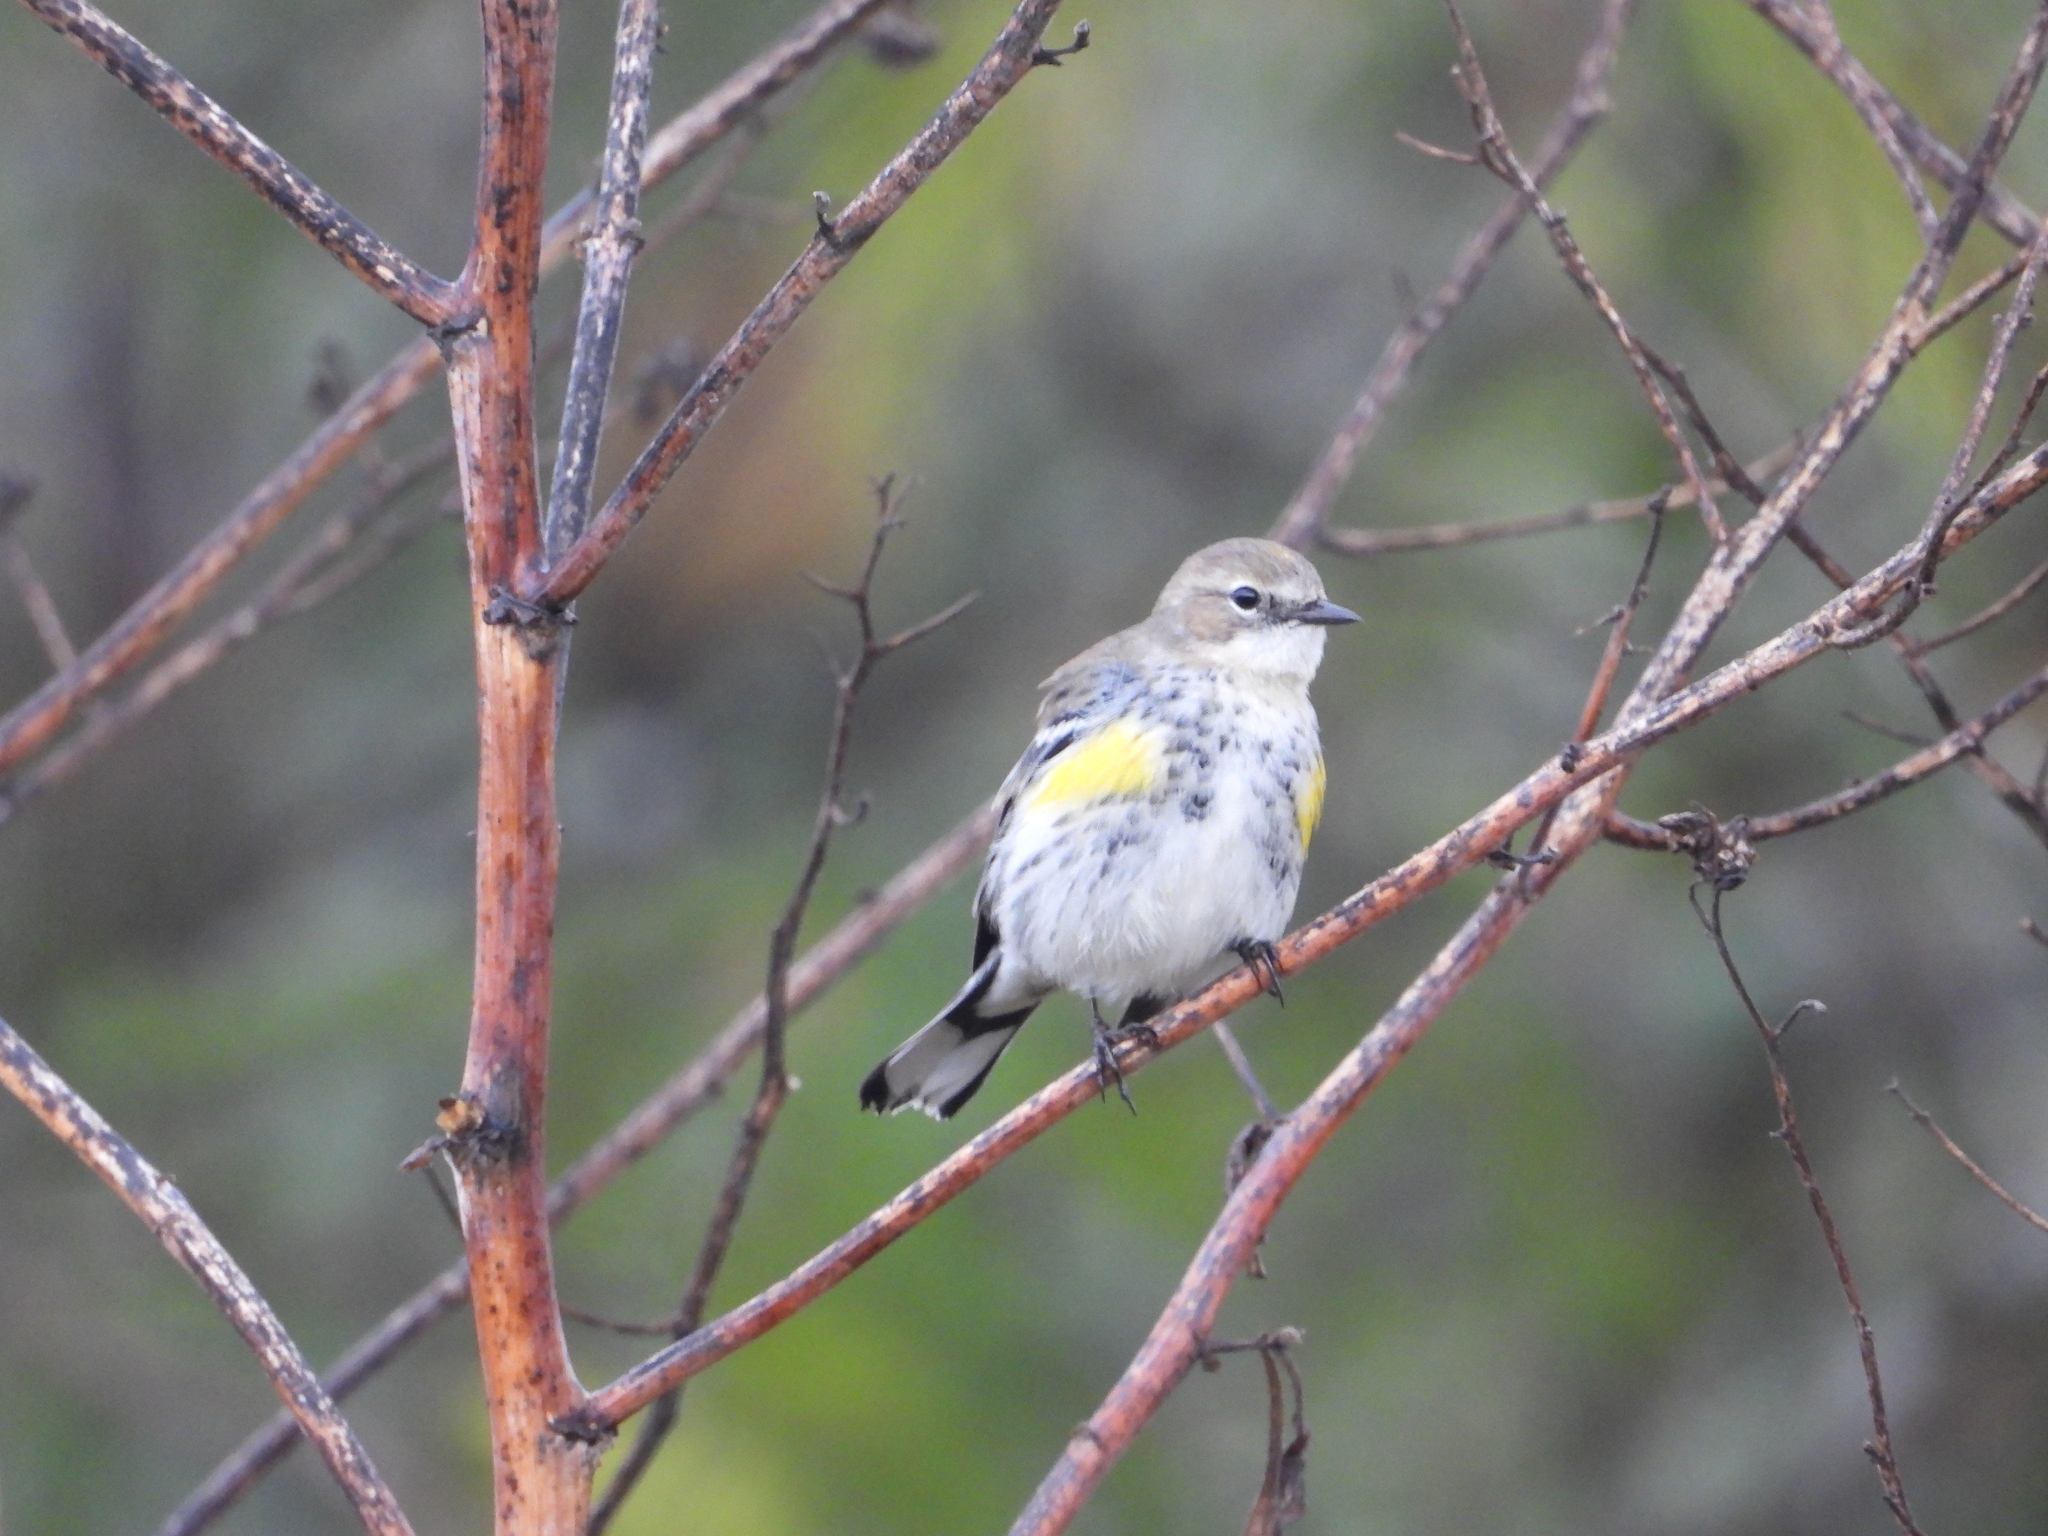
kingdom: Animalia
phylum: Chordata
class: Aves
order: Passeriformes
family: Parulidae
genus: Setophaga
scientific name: Setophaga coronata
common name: Myrtle warbler
